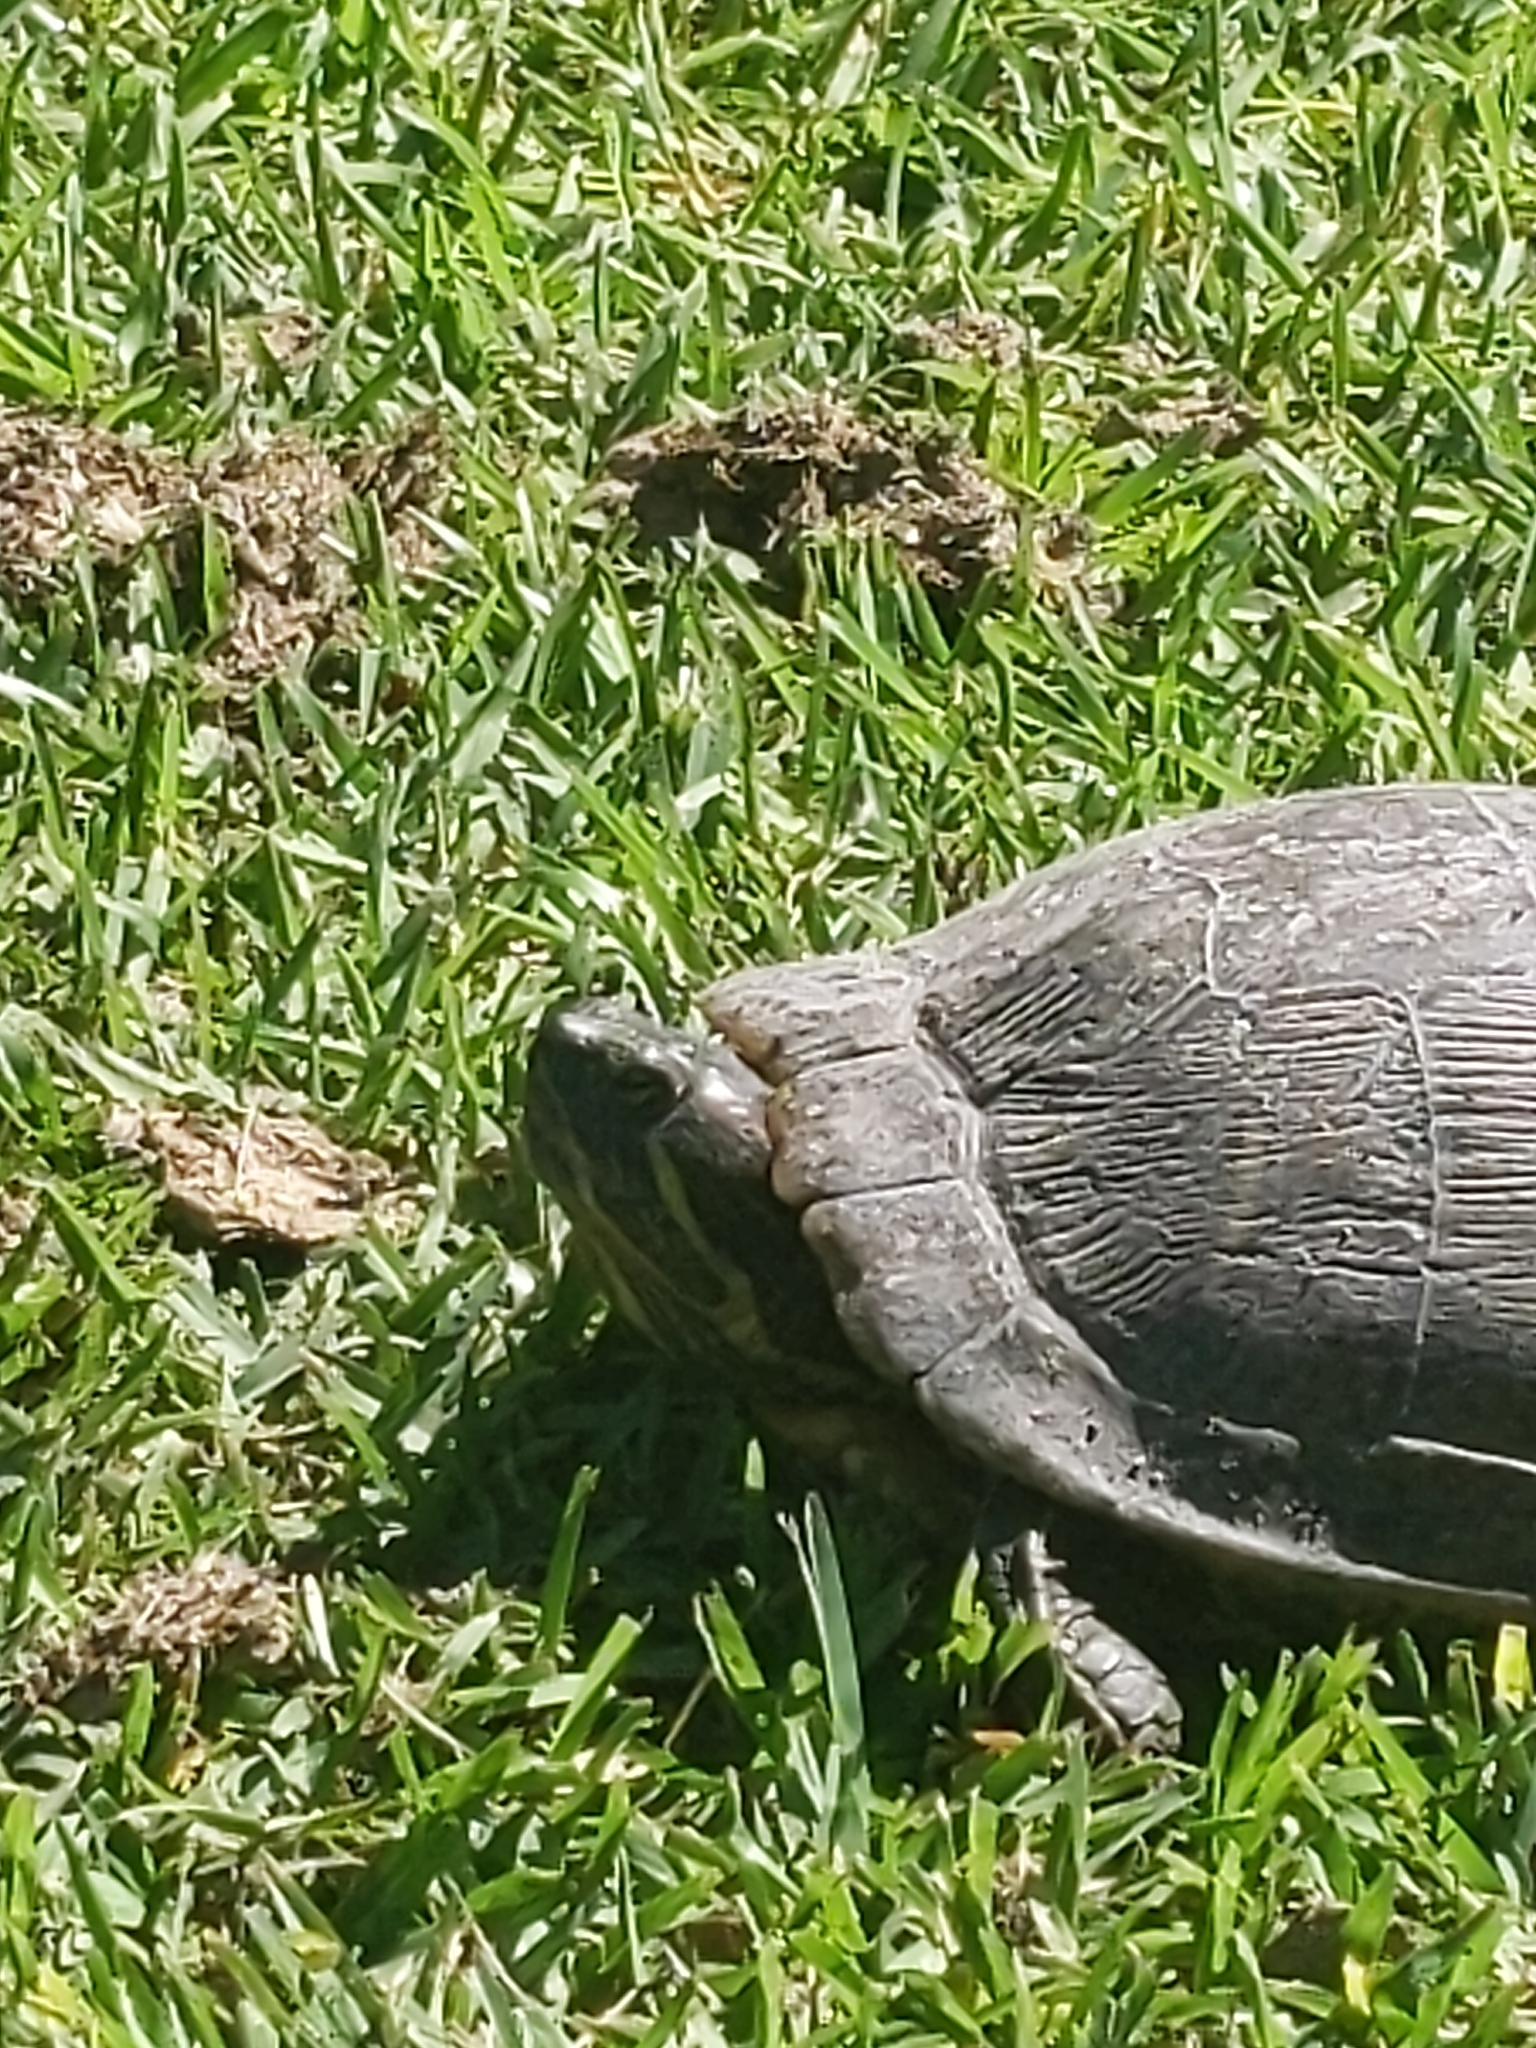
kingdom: Animalia
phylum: Chordata
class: Testudines
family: Emydidae
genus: Trachemys
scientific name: Trachemys scripta
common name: Slider
